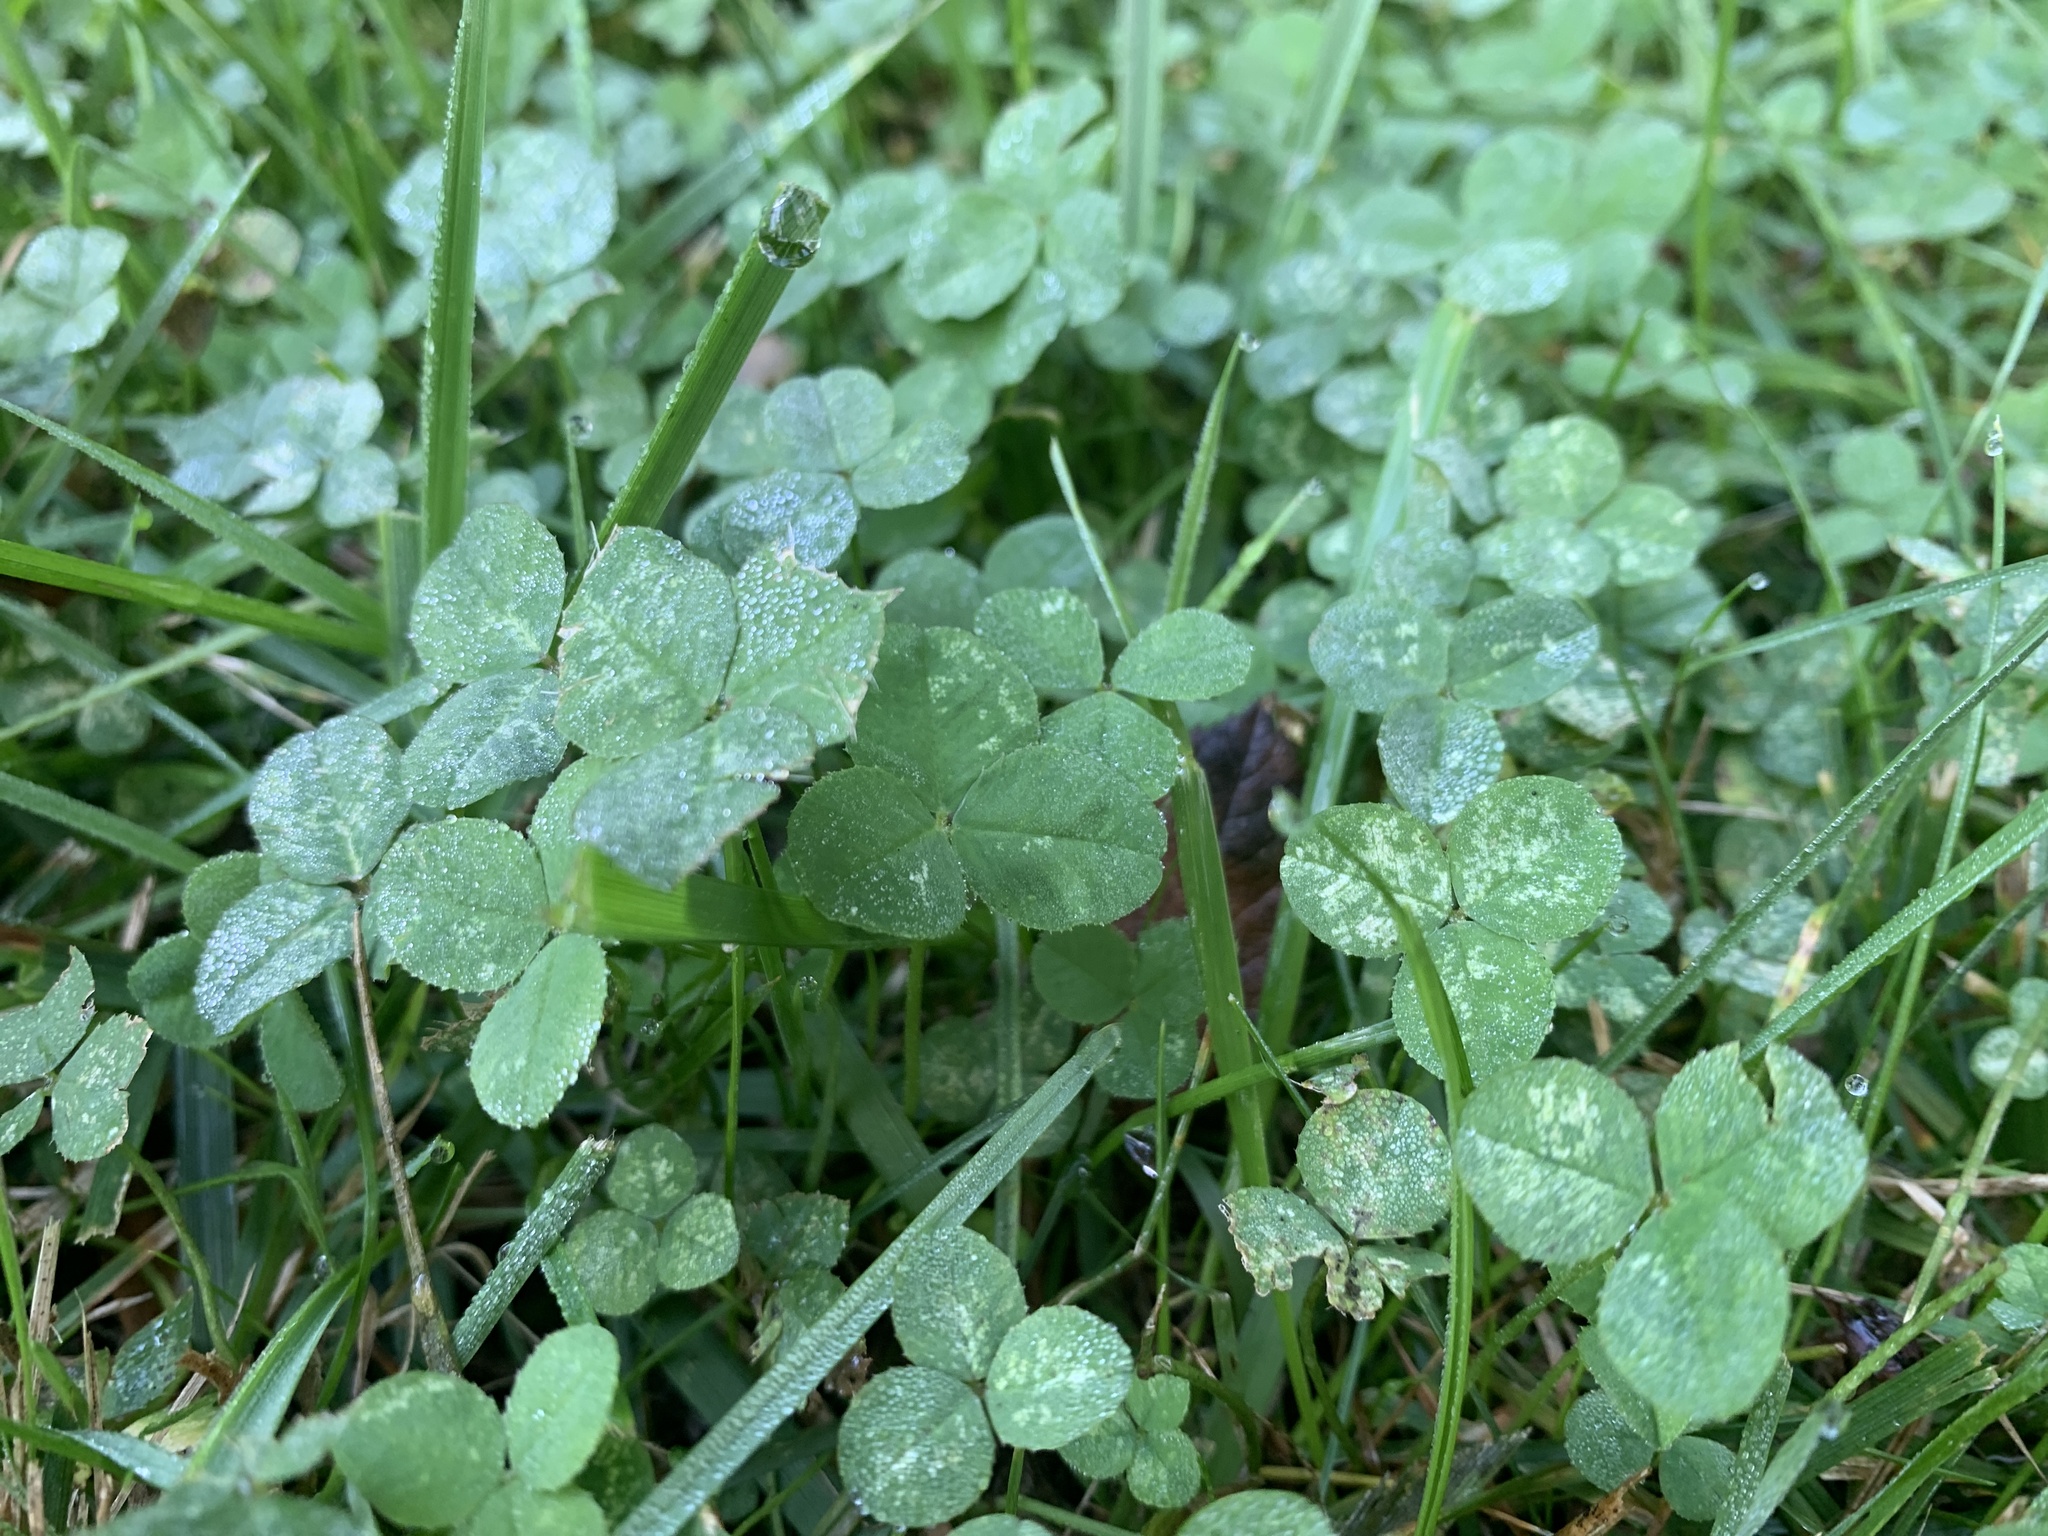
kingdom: Plantae
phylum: Tracheophyta
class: Magnoliopsida
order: Fabales
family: Fabaceae
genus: Trifolium
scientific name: Trifolium repens
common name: White clover
